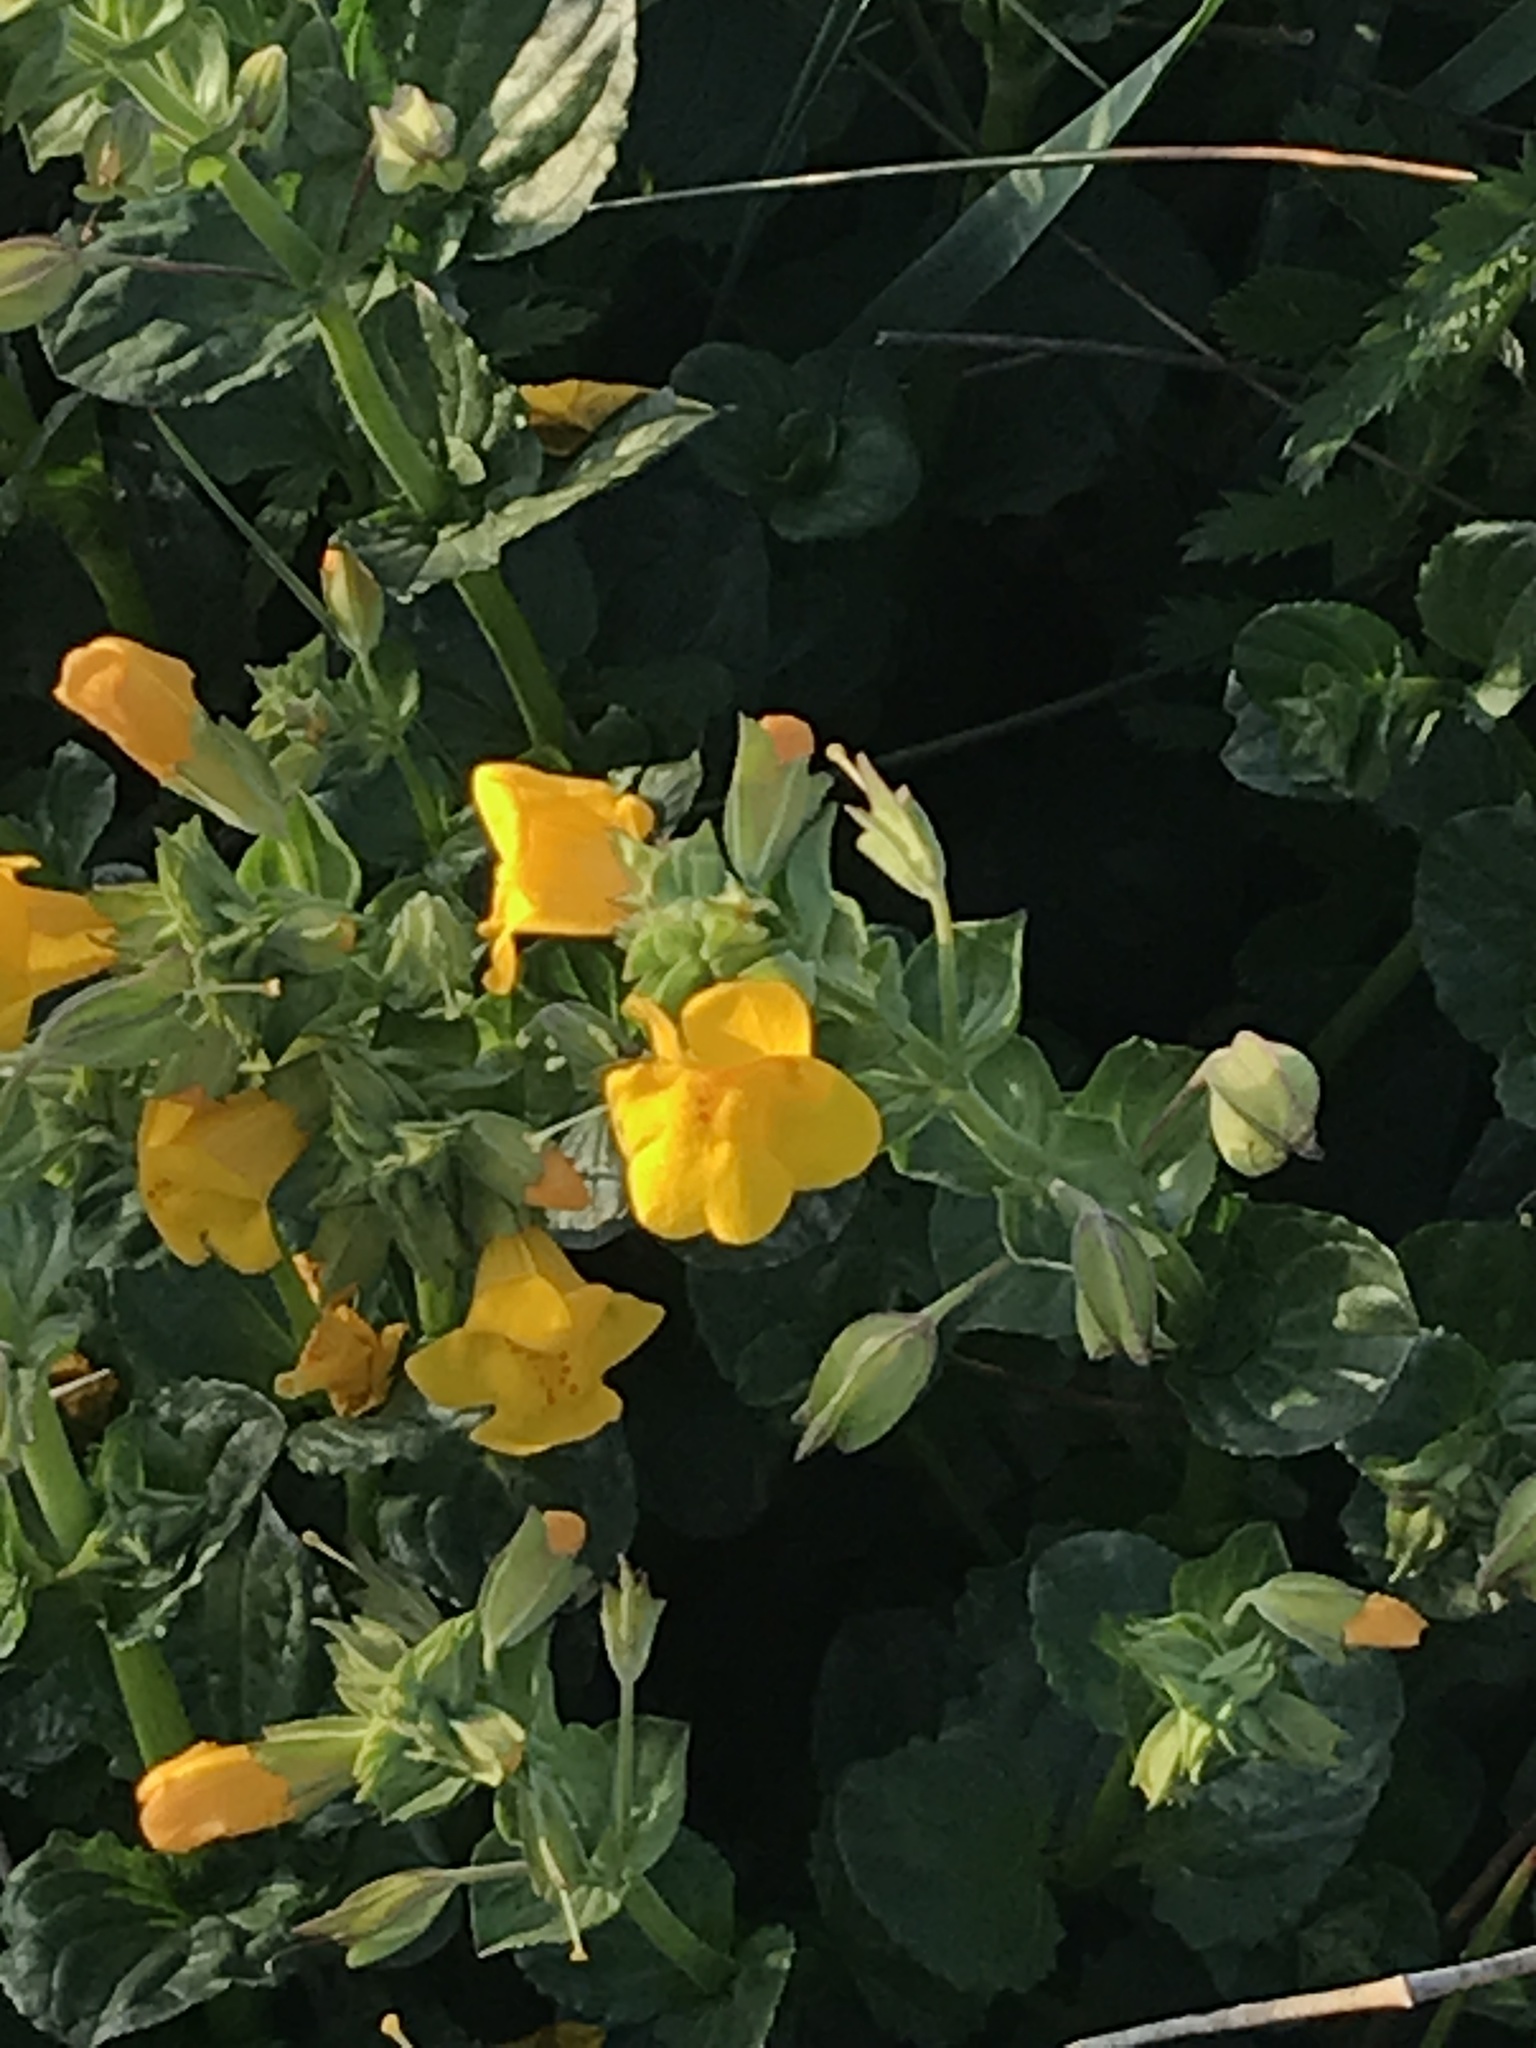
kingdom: Plantae
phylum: Tracheophyta
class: Magnoliopsida
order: Lamiales
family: Phrymaceae
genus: Erythranthe
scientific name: Erythranthe grandis
